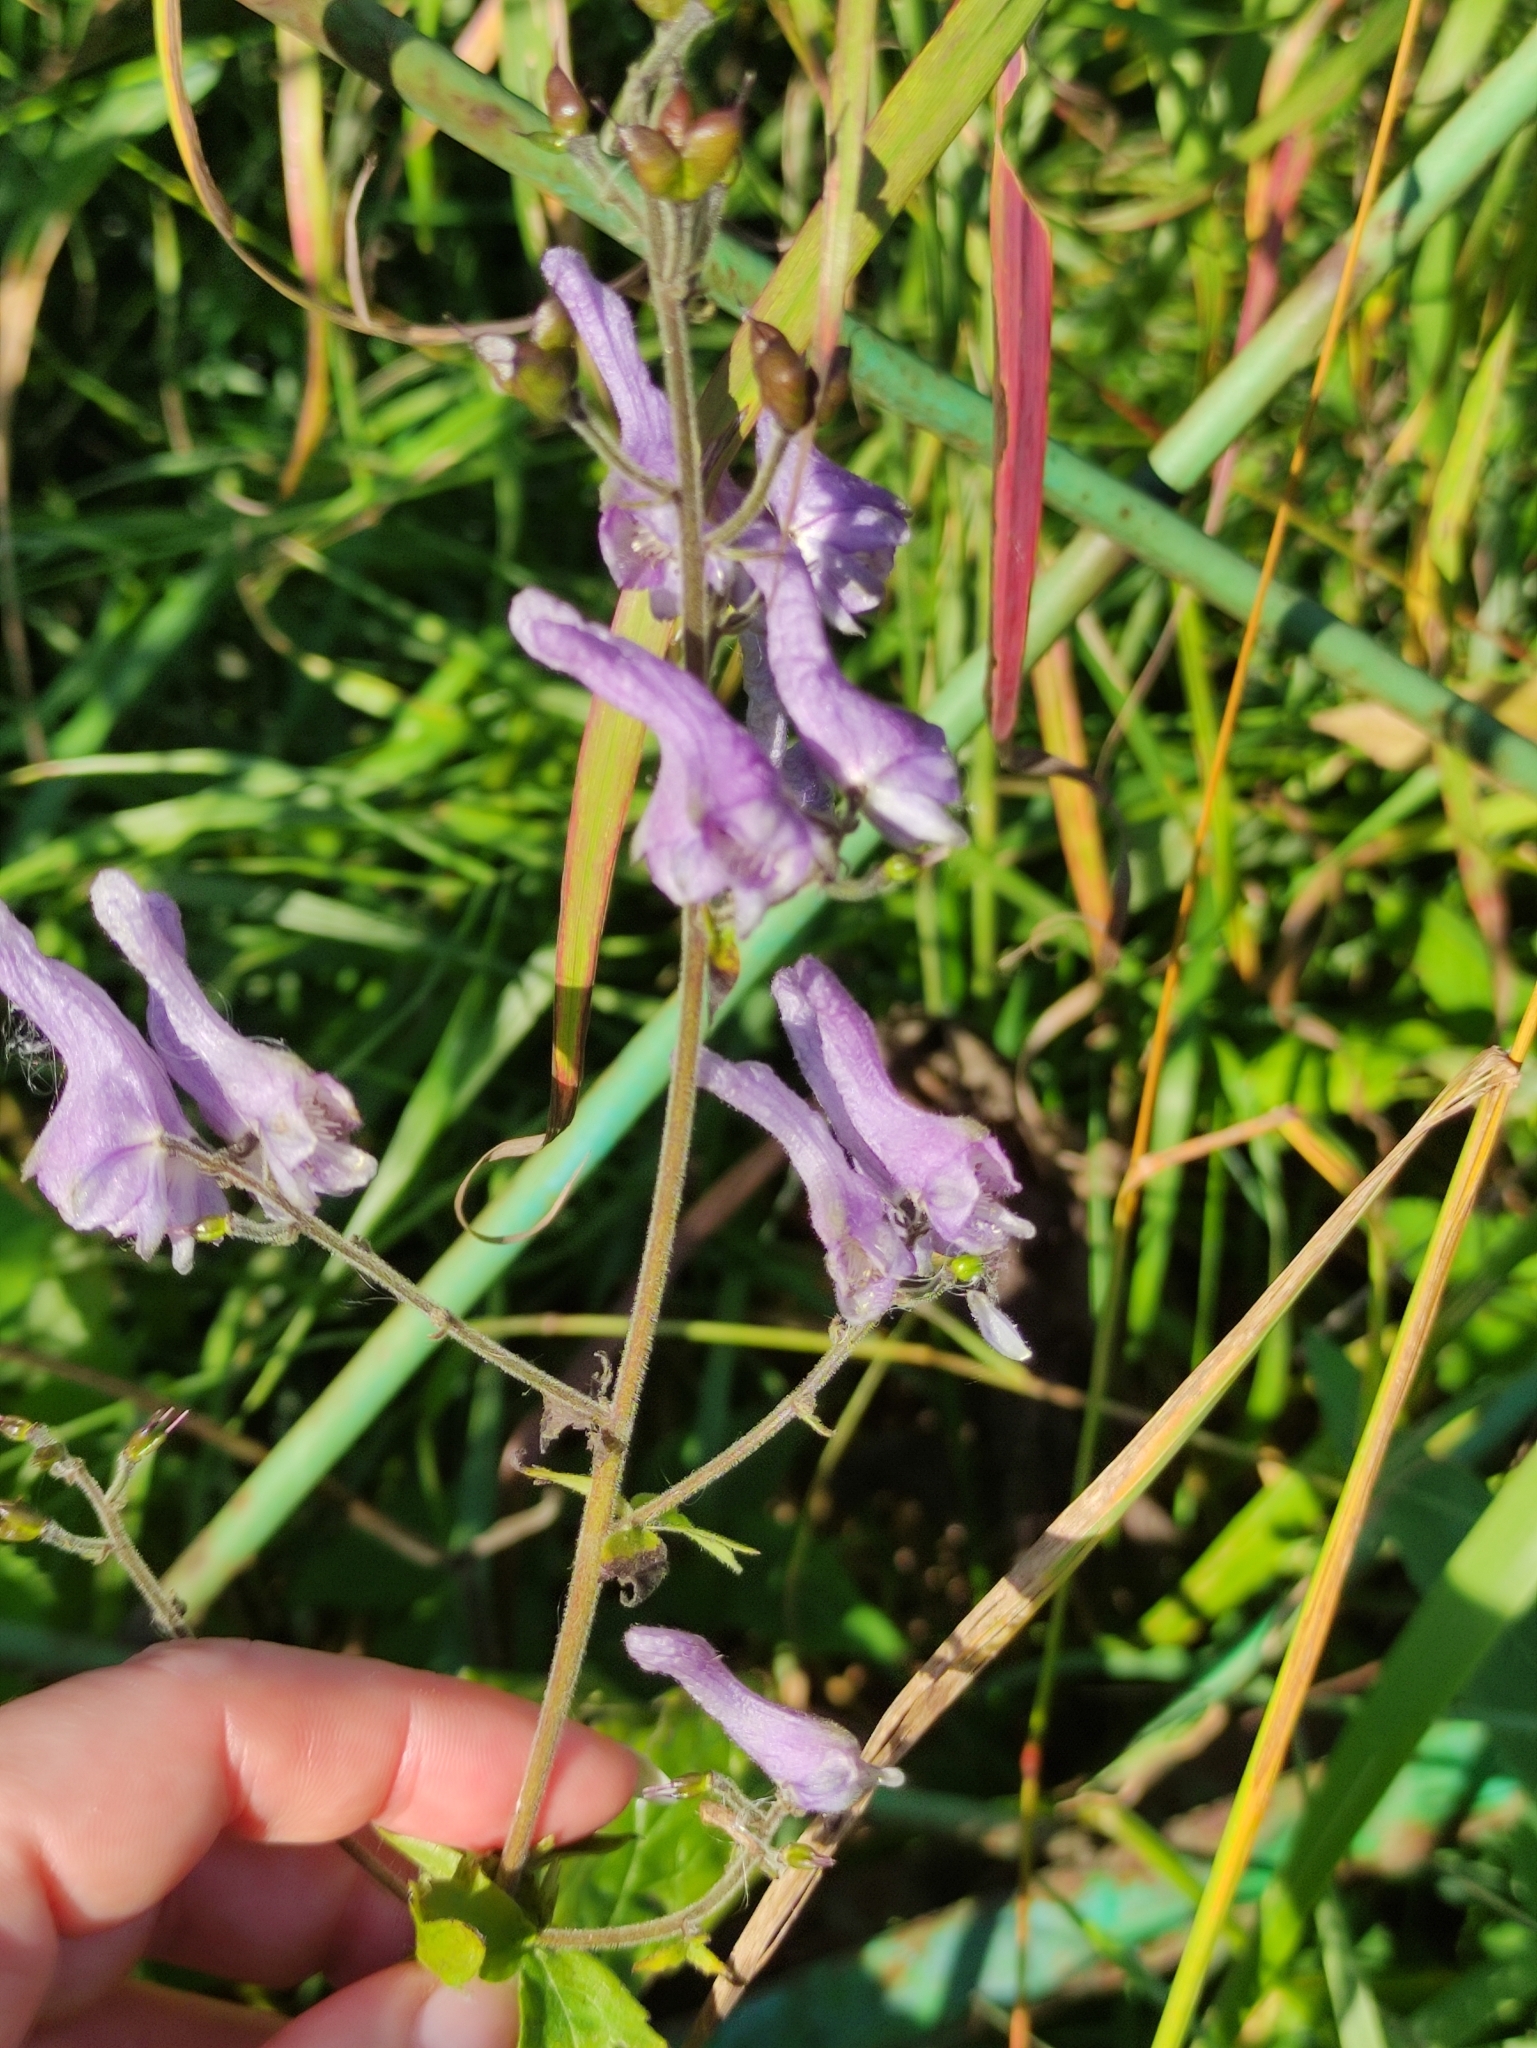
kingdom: Plantae
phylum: Tracheophyta
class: Magnoliopsida
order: Ranunculales
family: Ranunculaceae
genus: Aconitum
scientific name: Aconitum septentrionale
